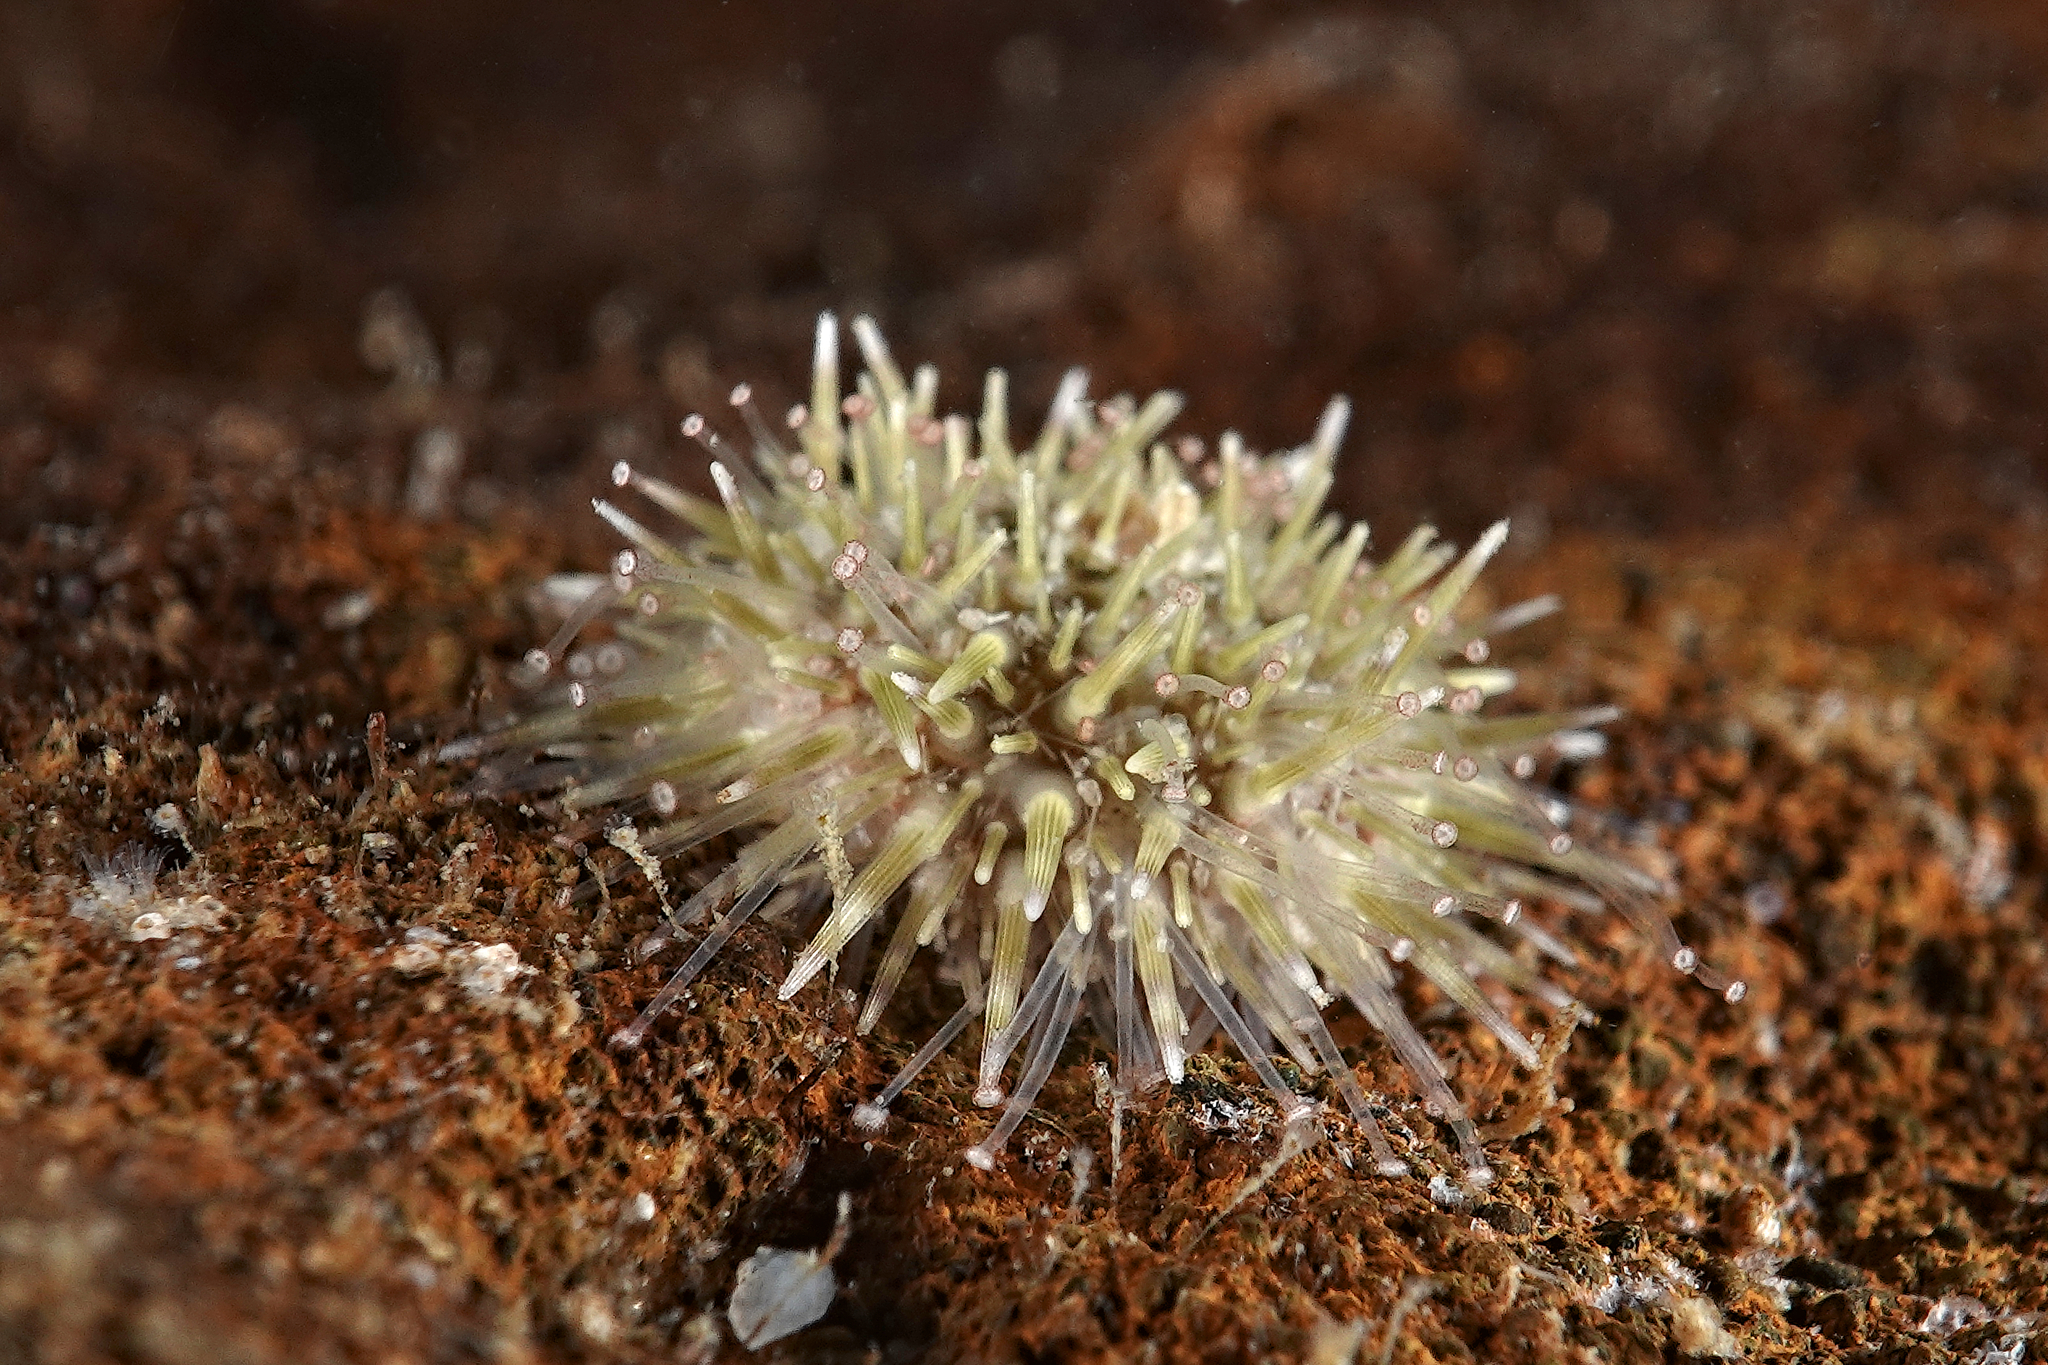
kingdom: Animalia
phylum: Echinodermata
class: Echinoidea
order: Camarodonta
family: Parechinidae
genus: Psammechinus
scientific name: Psammechinus miliaris
